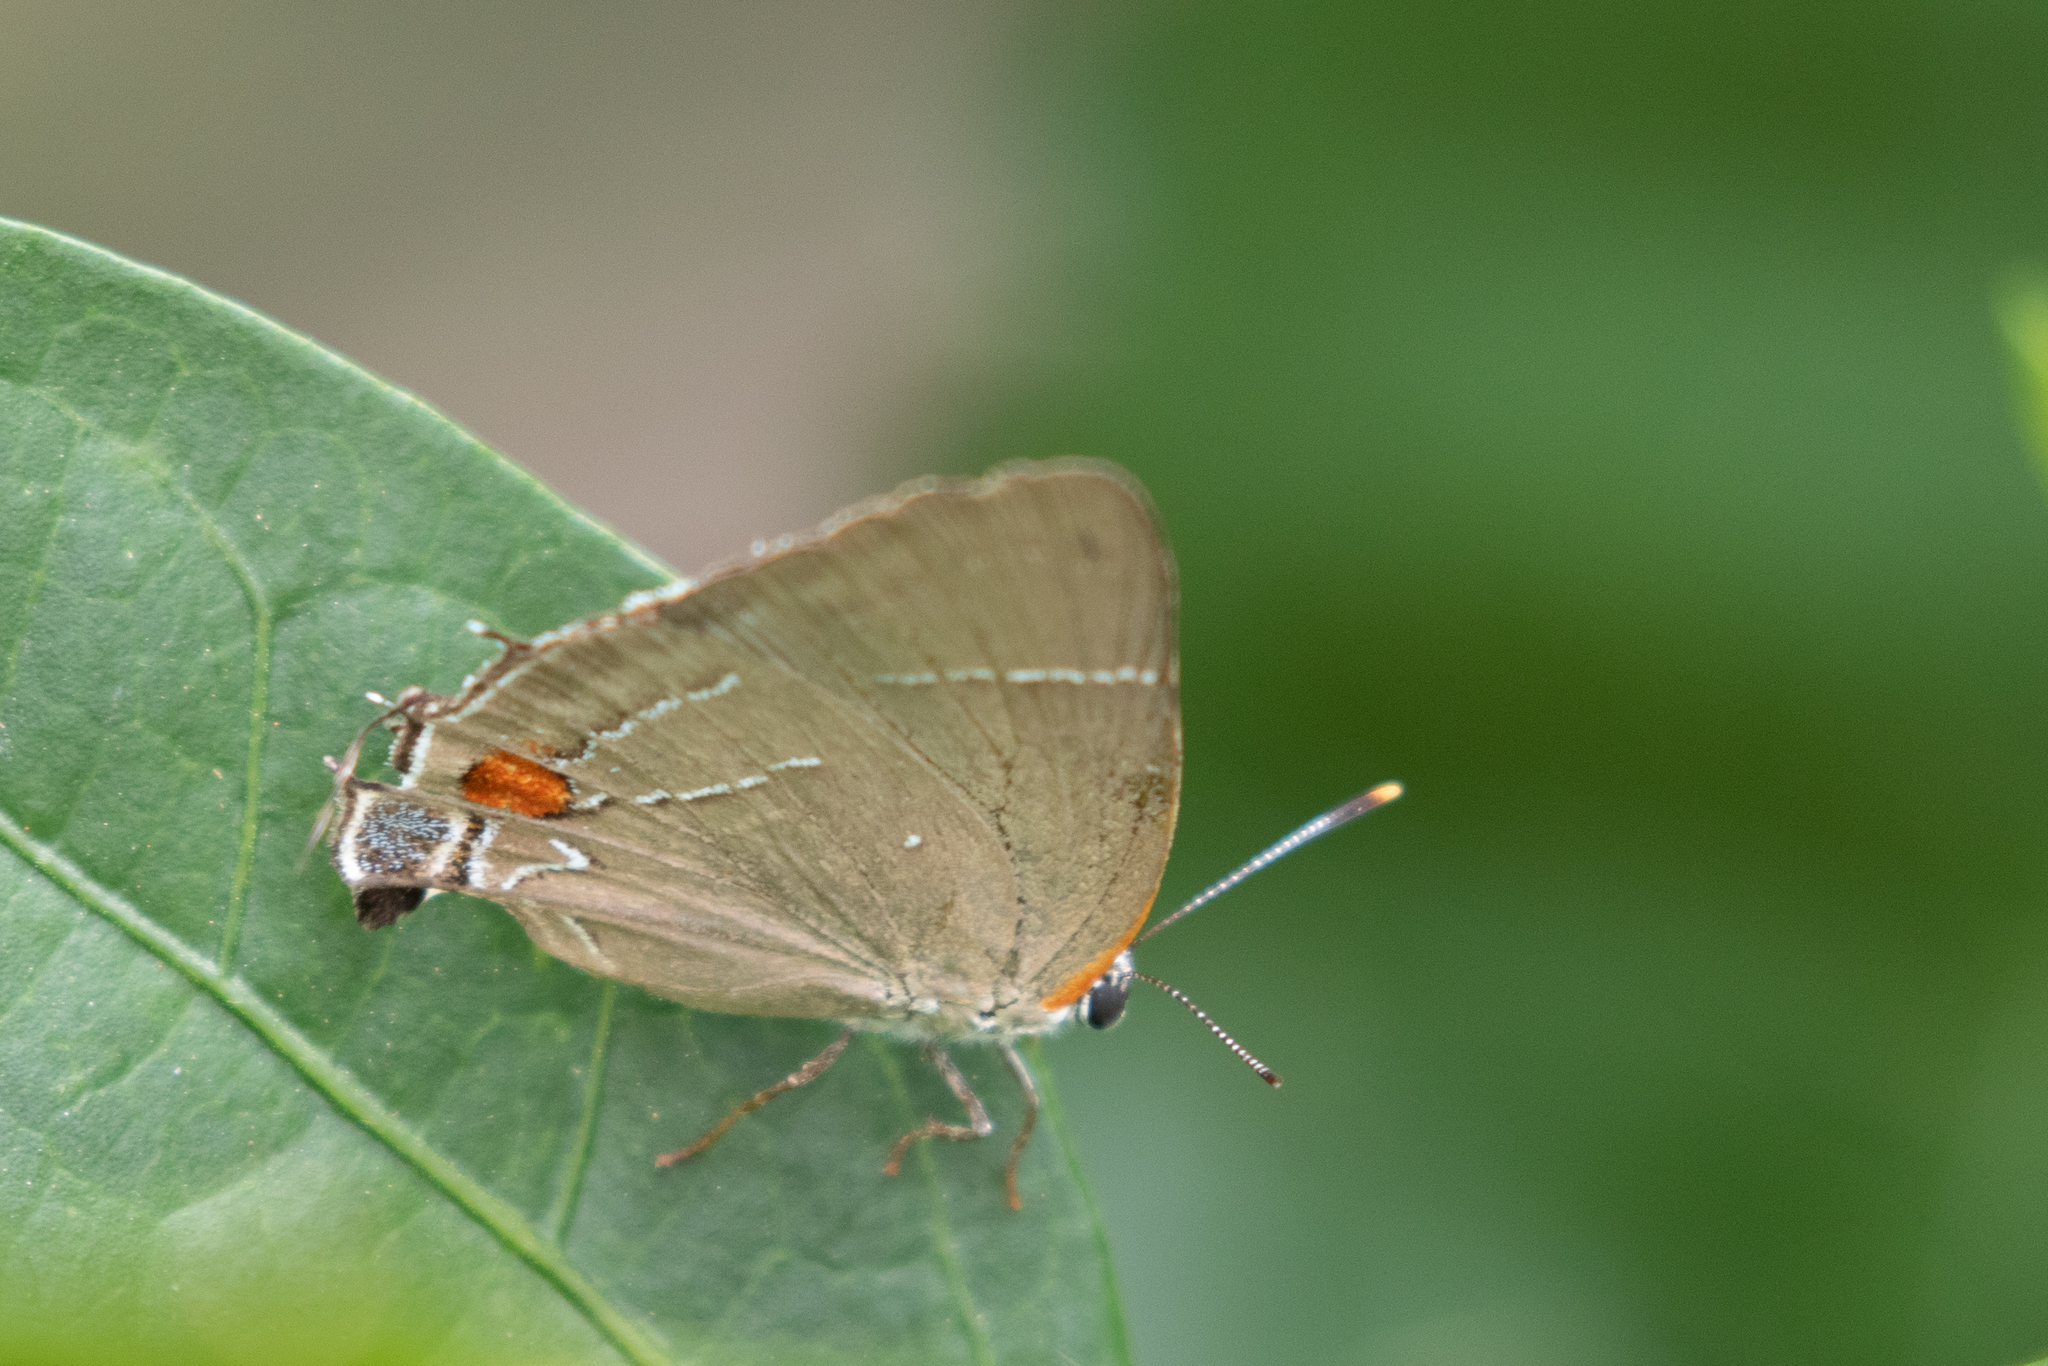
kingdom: Animalia
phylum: Arthropoda
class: Insecta
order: Lepidoptera
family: Lycaenidae
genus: Parrhasius
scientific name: Parrhasius m-album
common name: White m hairstreak
